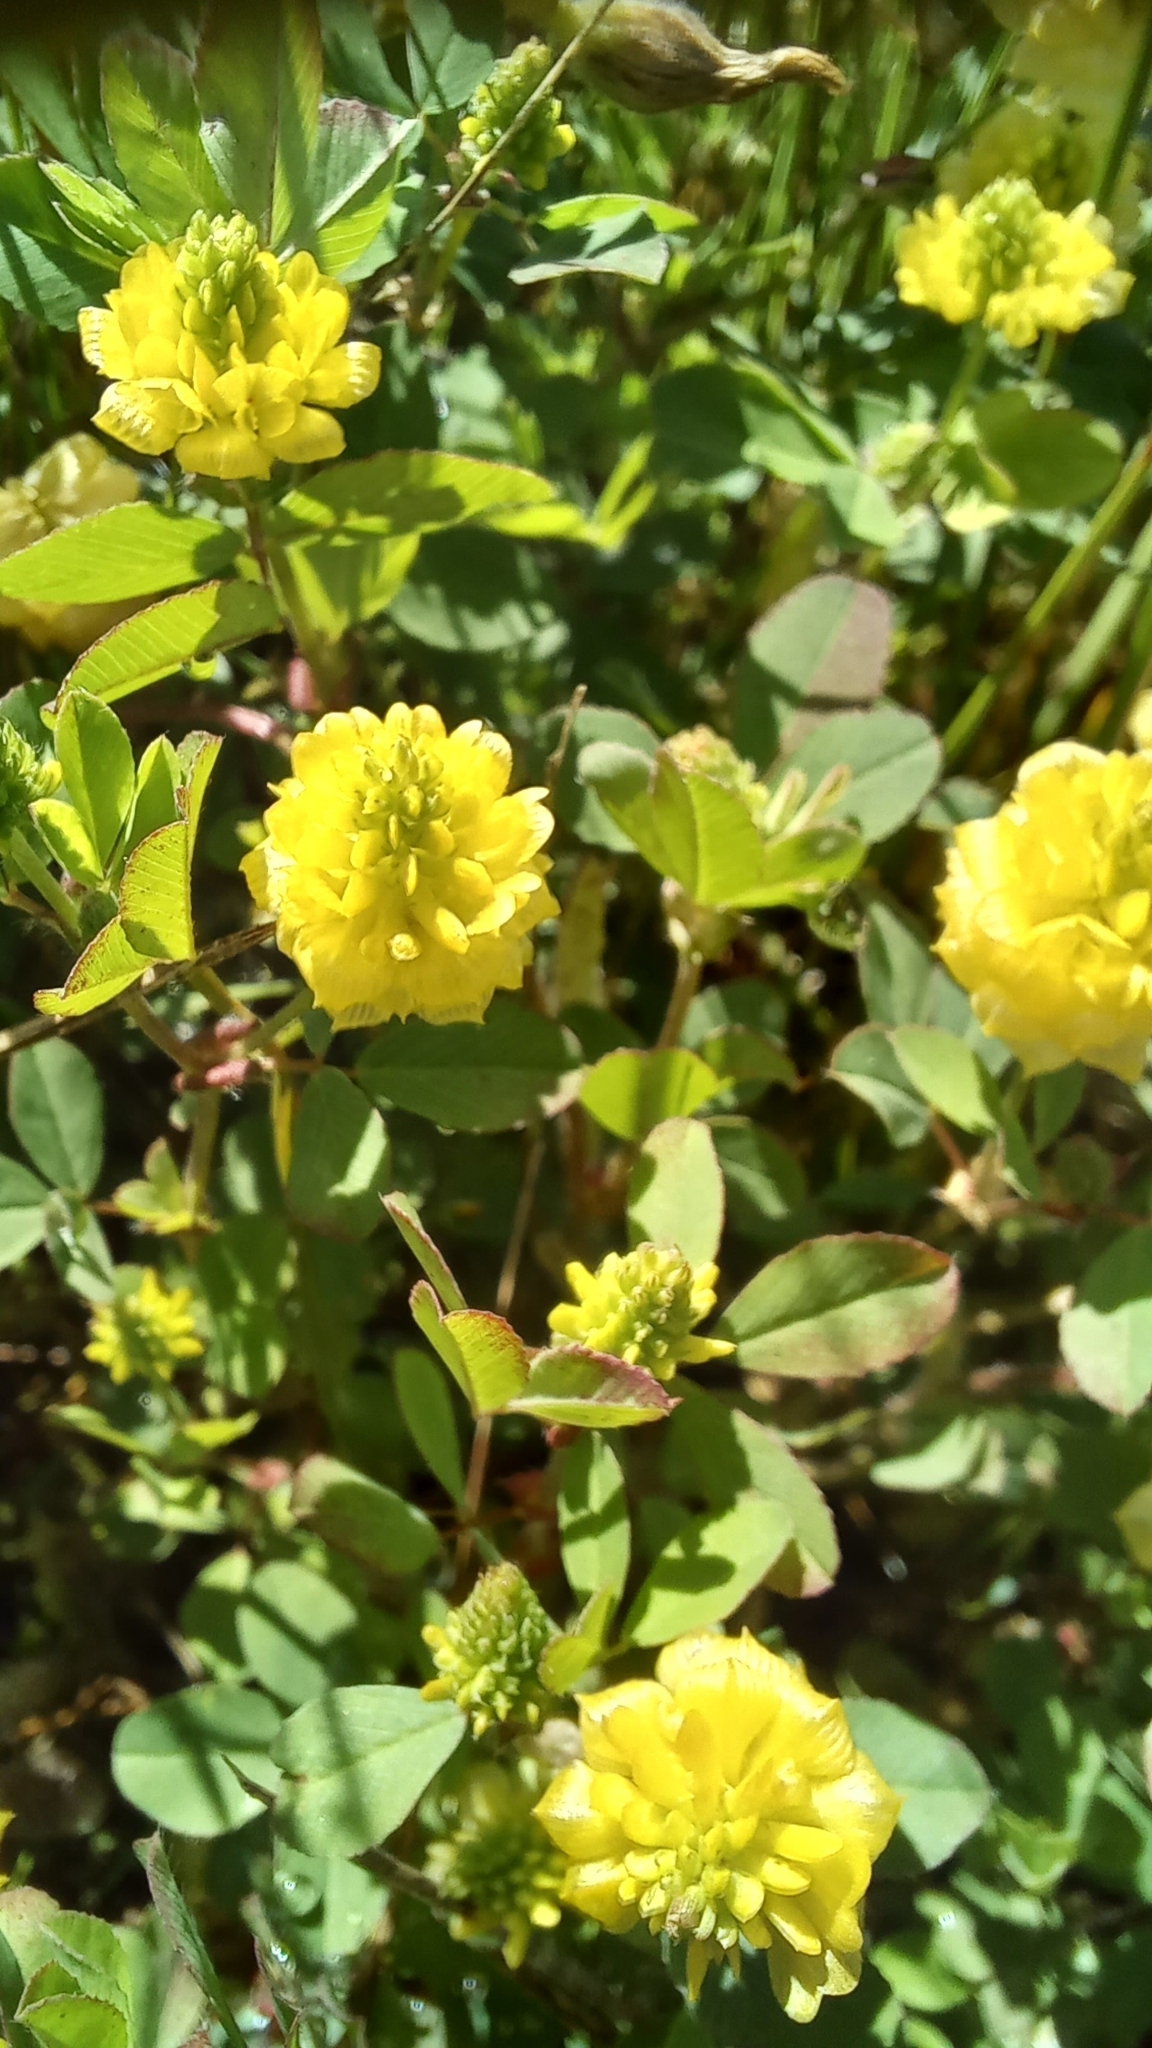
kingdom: Plantae
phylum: Tracheophyta
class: Magnoliopsida
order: Fabales
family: Fabaceae
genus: Trifolium
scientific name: Trifolium campestre
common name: Field clover
